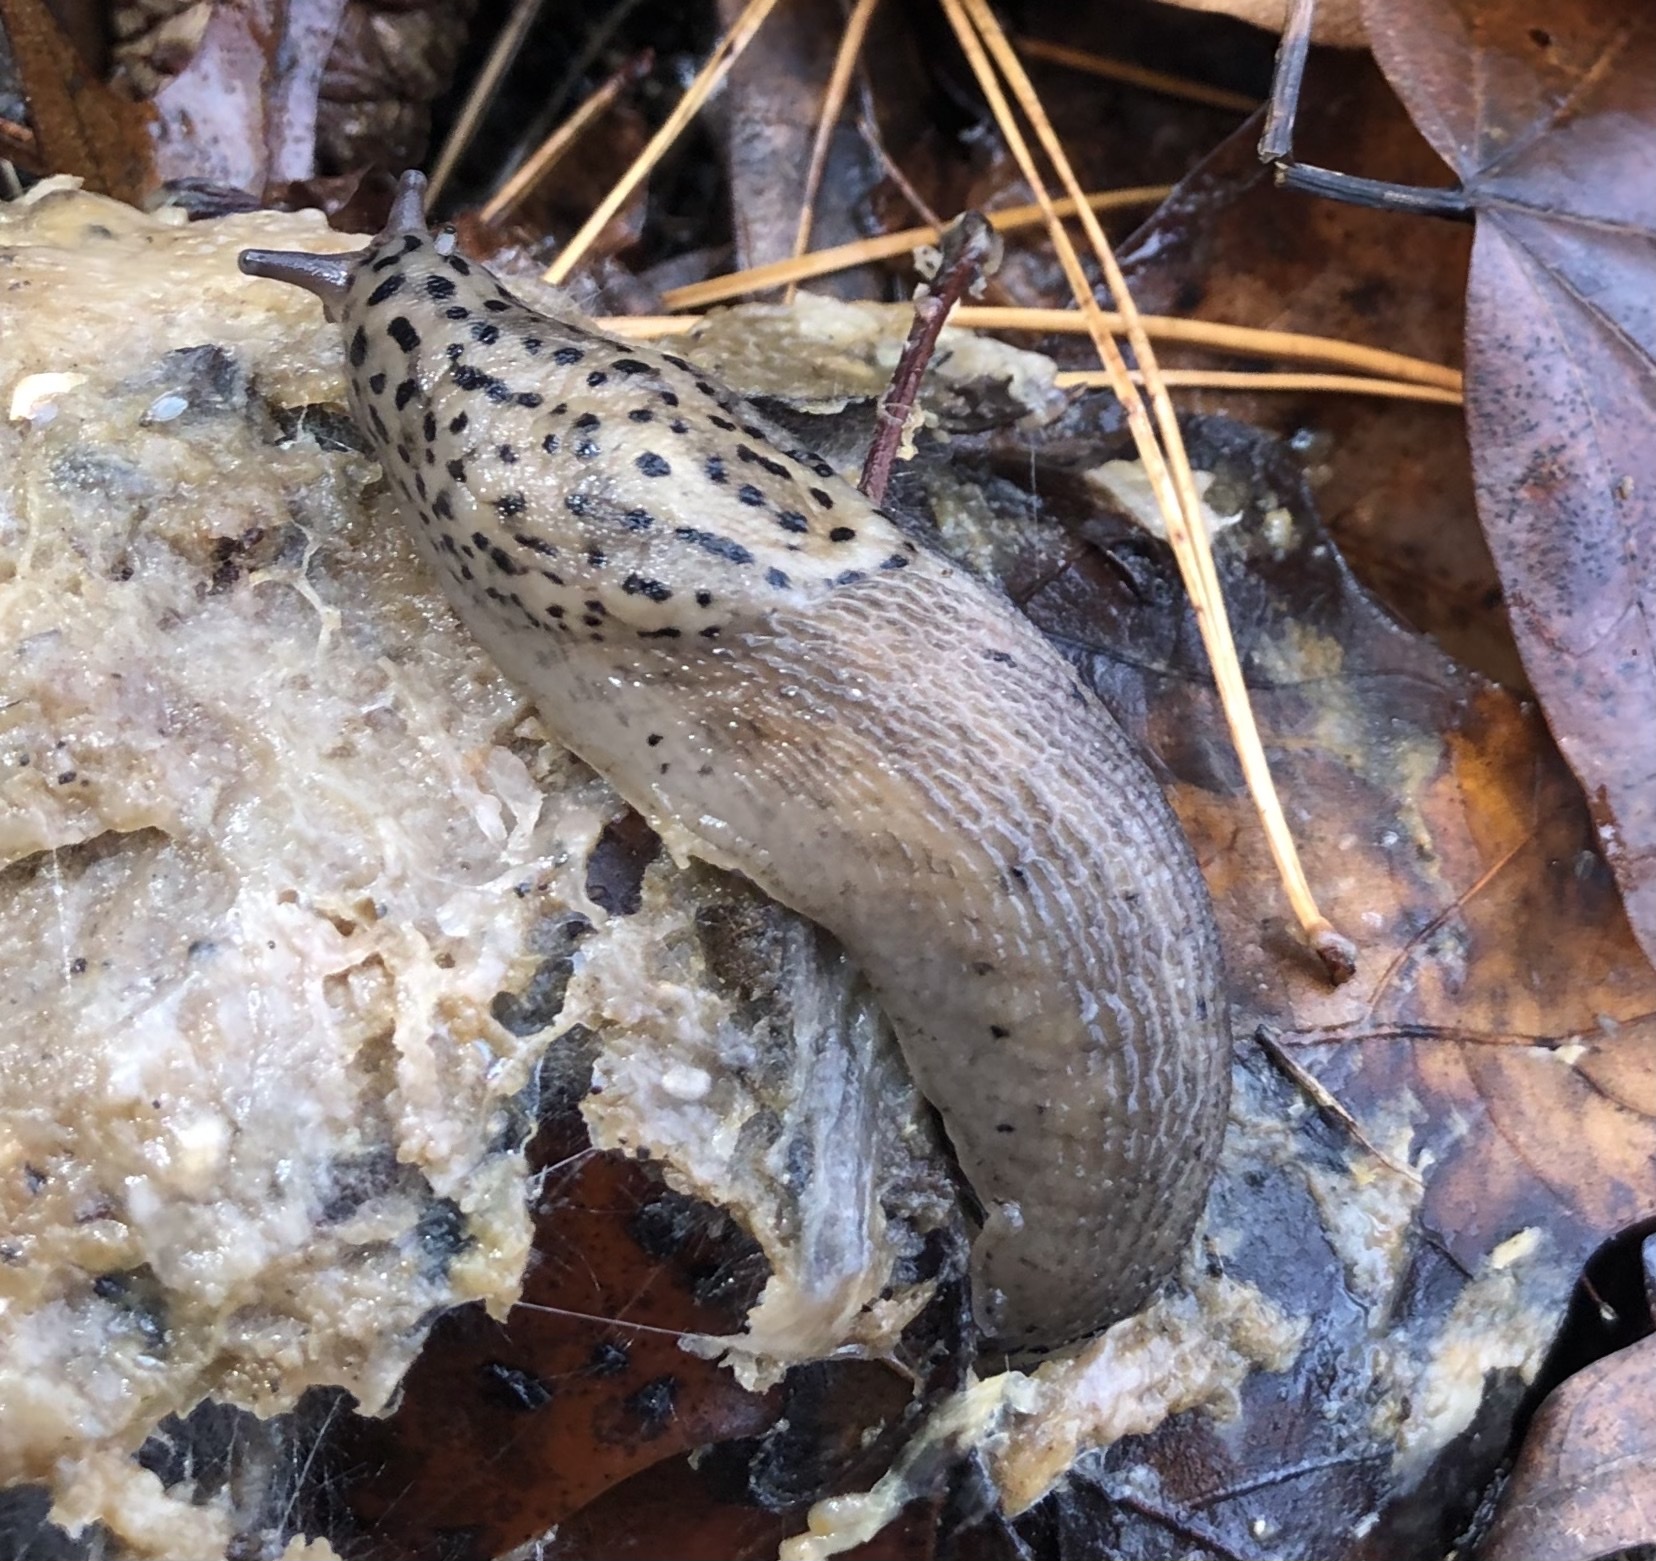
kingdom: Animalia
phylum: Mollusca
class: Gastropoda
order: Stylommatophora
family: Limacidae
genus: Limax
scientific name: Limax maximus
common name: Great grey slug
